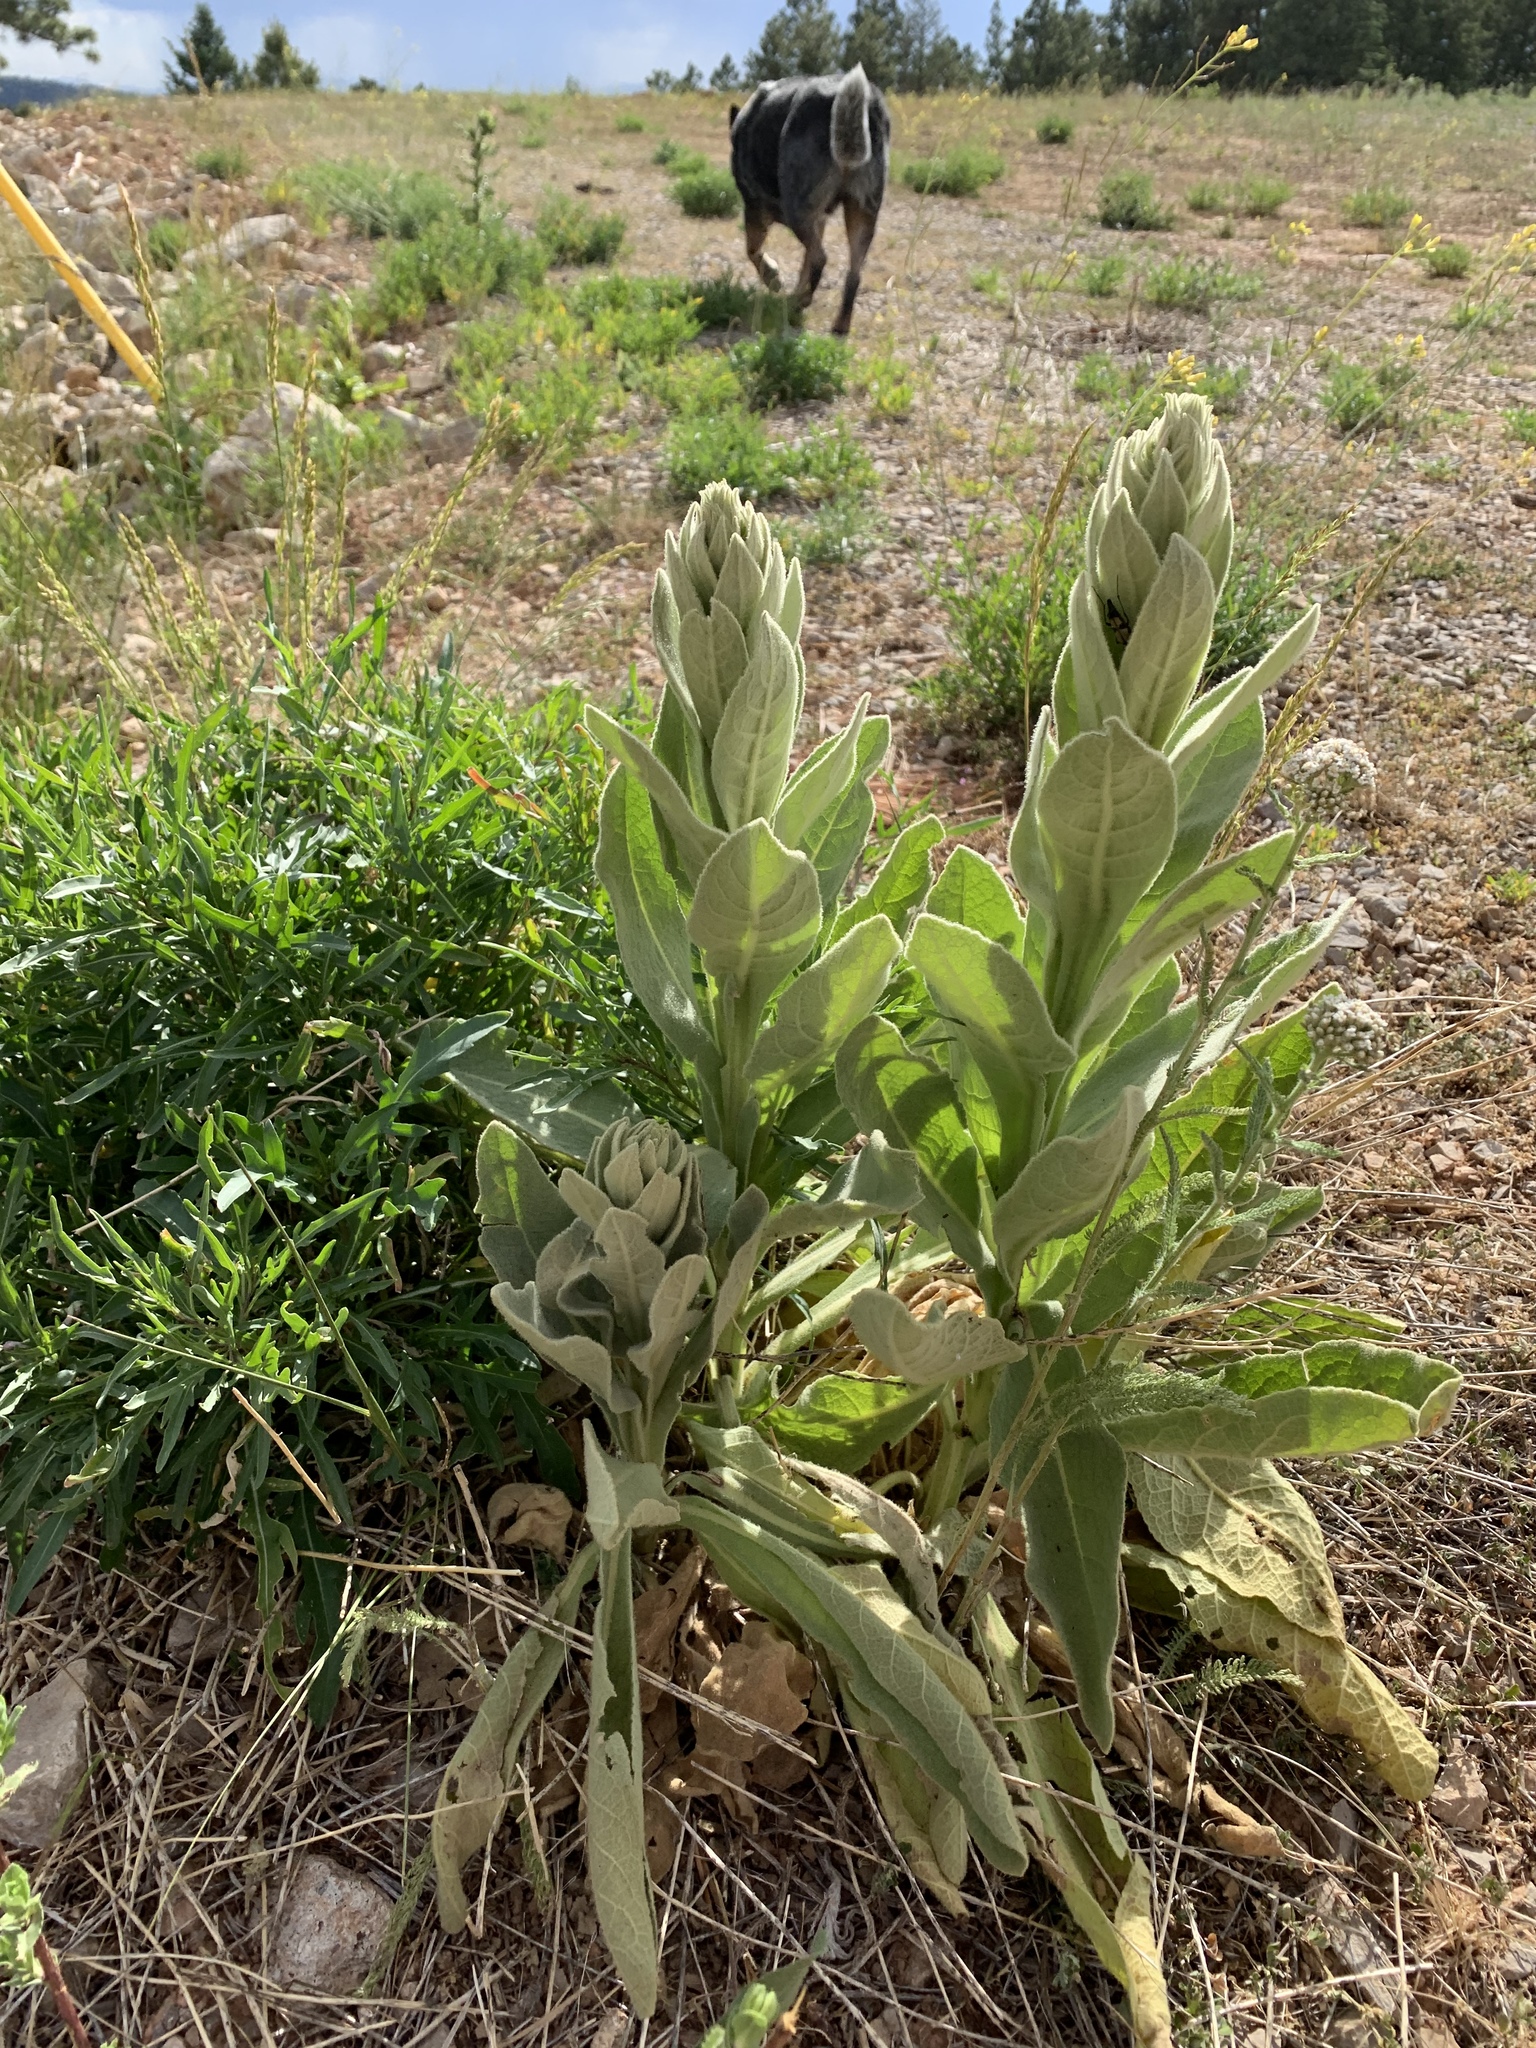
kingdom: Plantae
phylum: Tracheophyta
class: Magnoliopsida
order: Lamiales
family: Scrophulariaceae
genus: Verbascum
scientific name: Verbascum thapsus
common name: Common mullein
